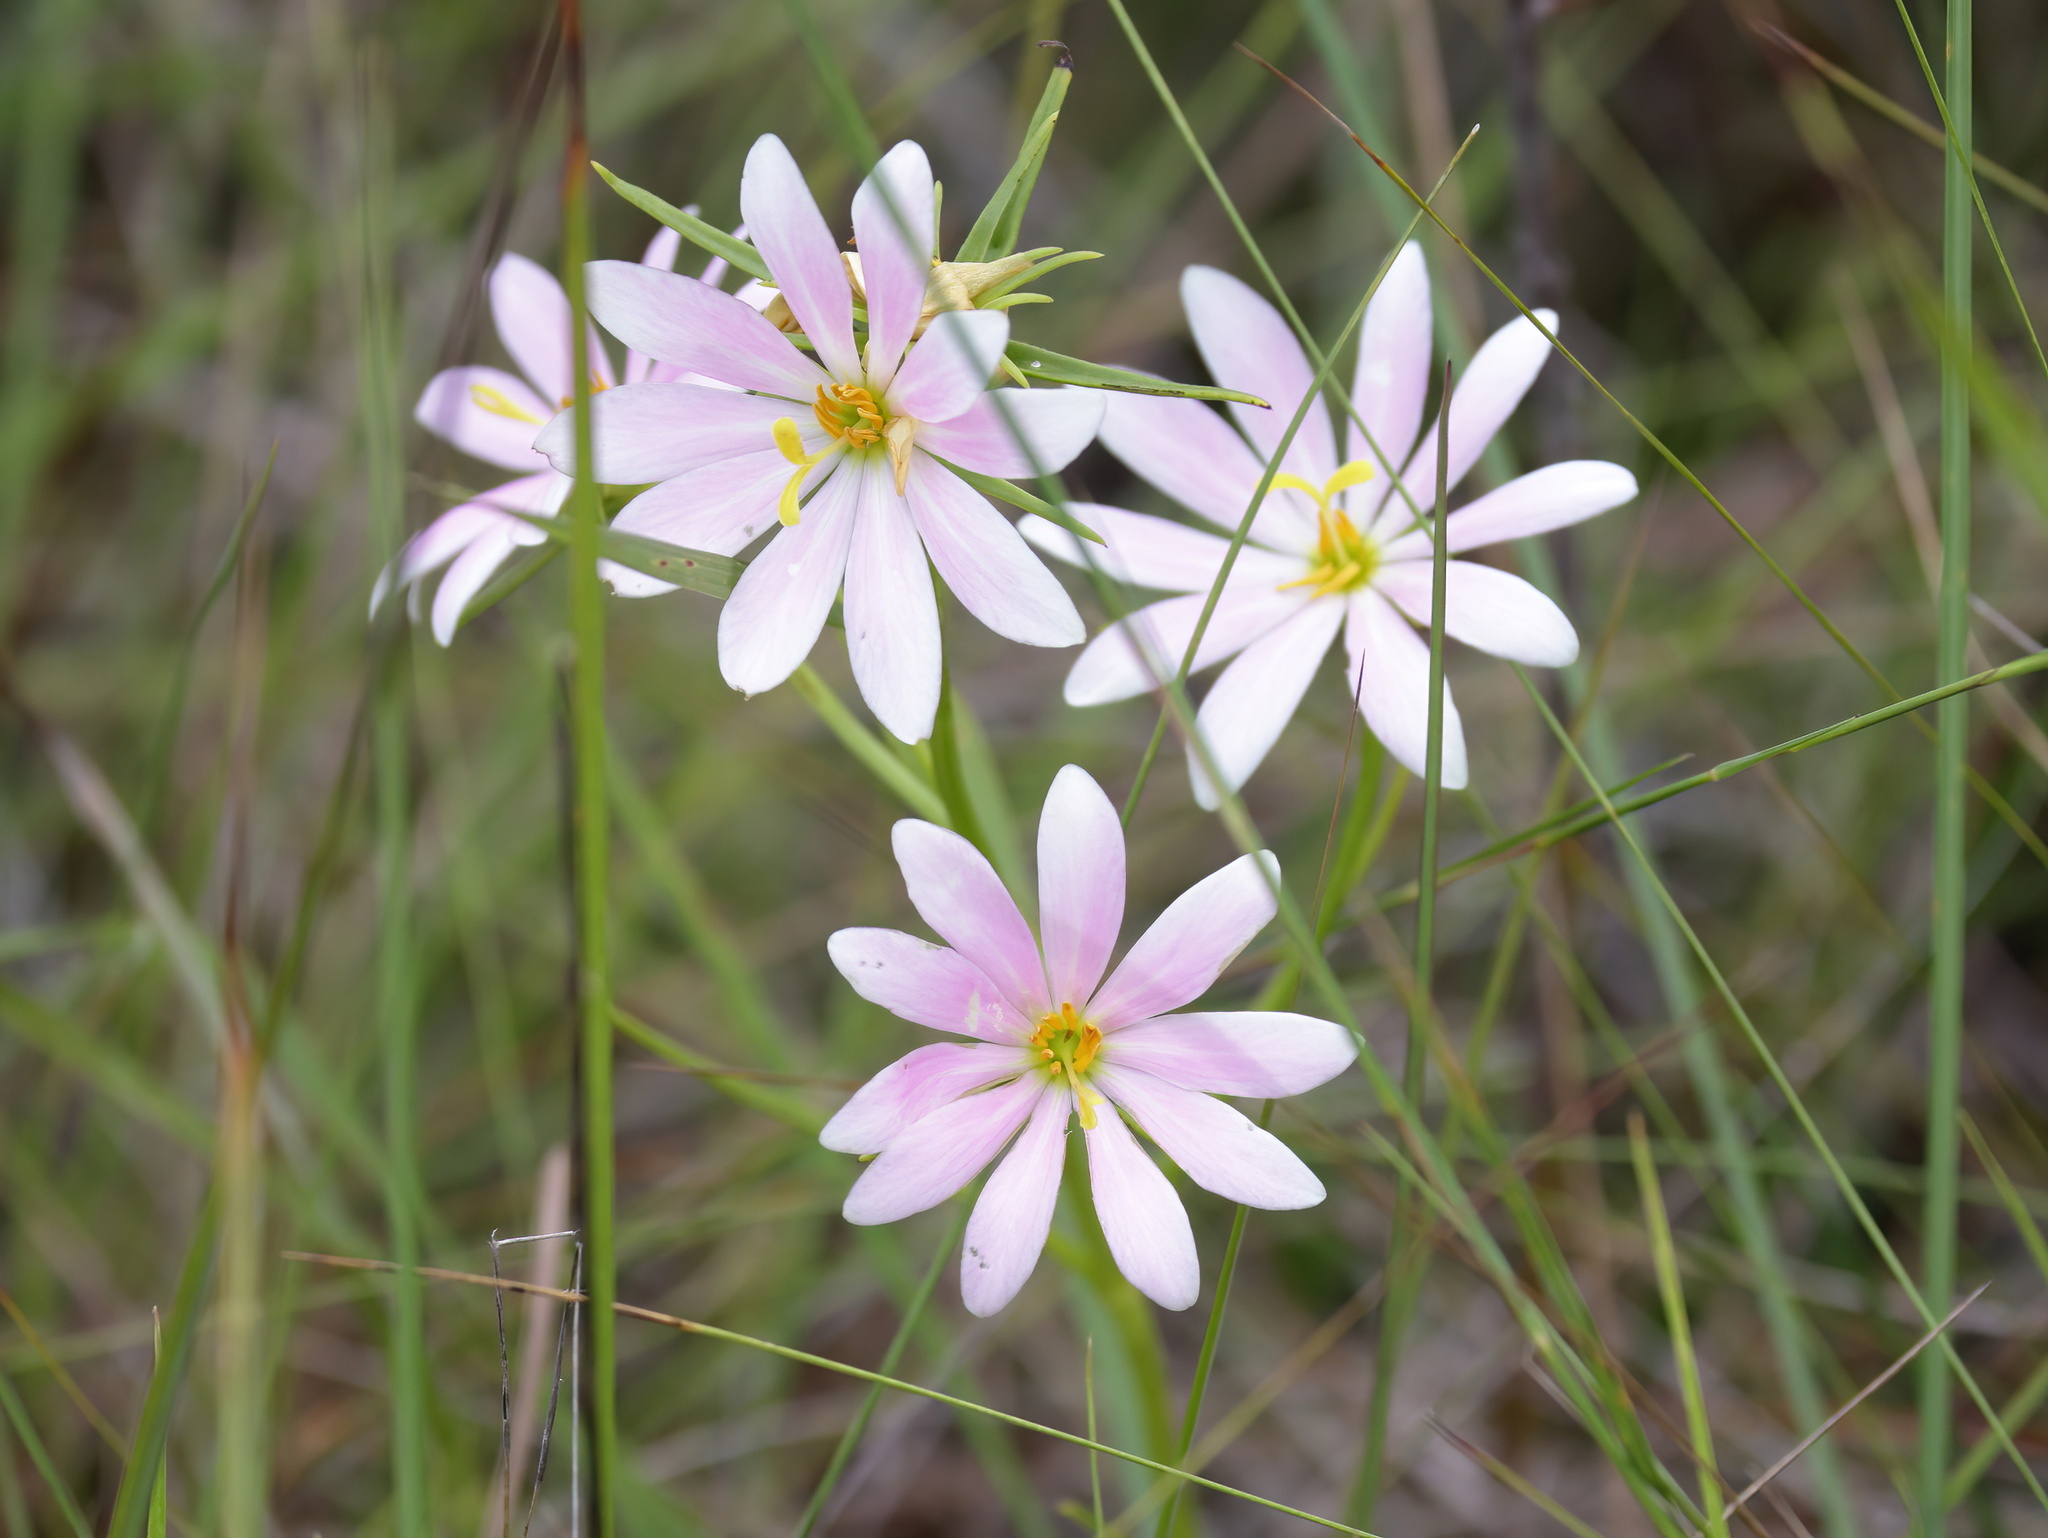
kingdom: Plantae
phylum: Tracheophyta
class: Magnoliopsida
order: Gentianales
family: Gentianaceae
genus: Sabatia
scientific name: Sabatia gentianoides
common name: Pinewoods rose-gentian
